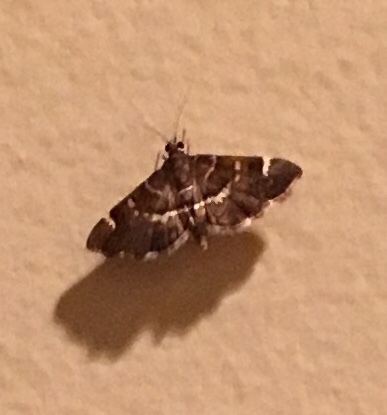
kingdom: Animalia
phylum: Arthropoda
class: Insecta
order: Lepidoptera
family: Crambidae
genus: Hymenia
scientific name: Hymenia perspectalis
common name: Spotted beet webworm
